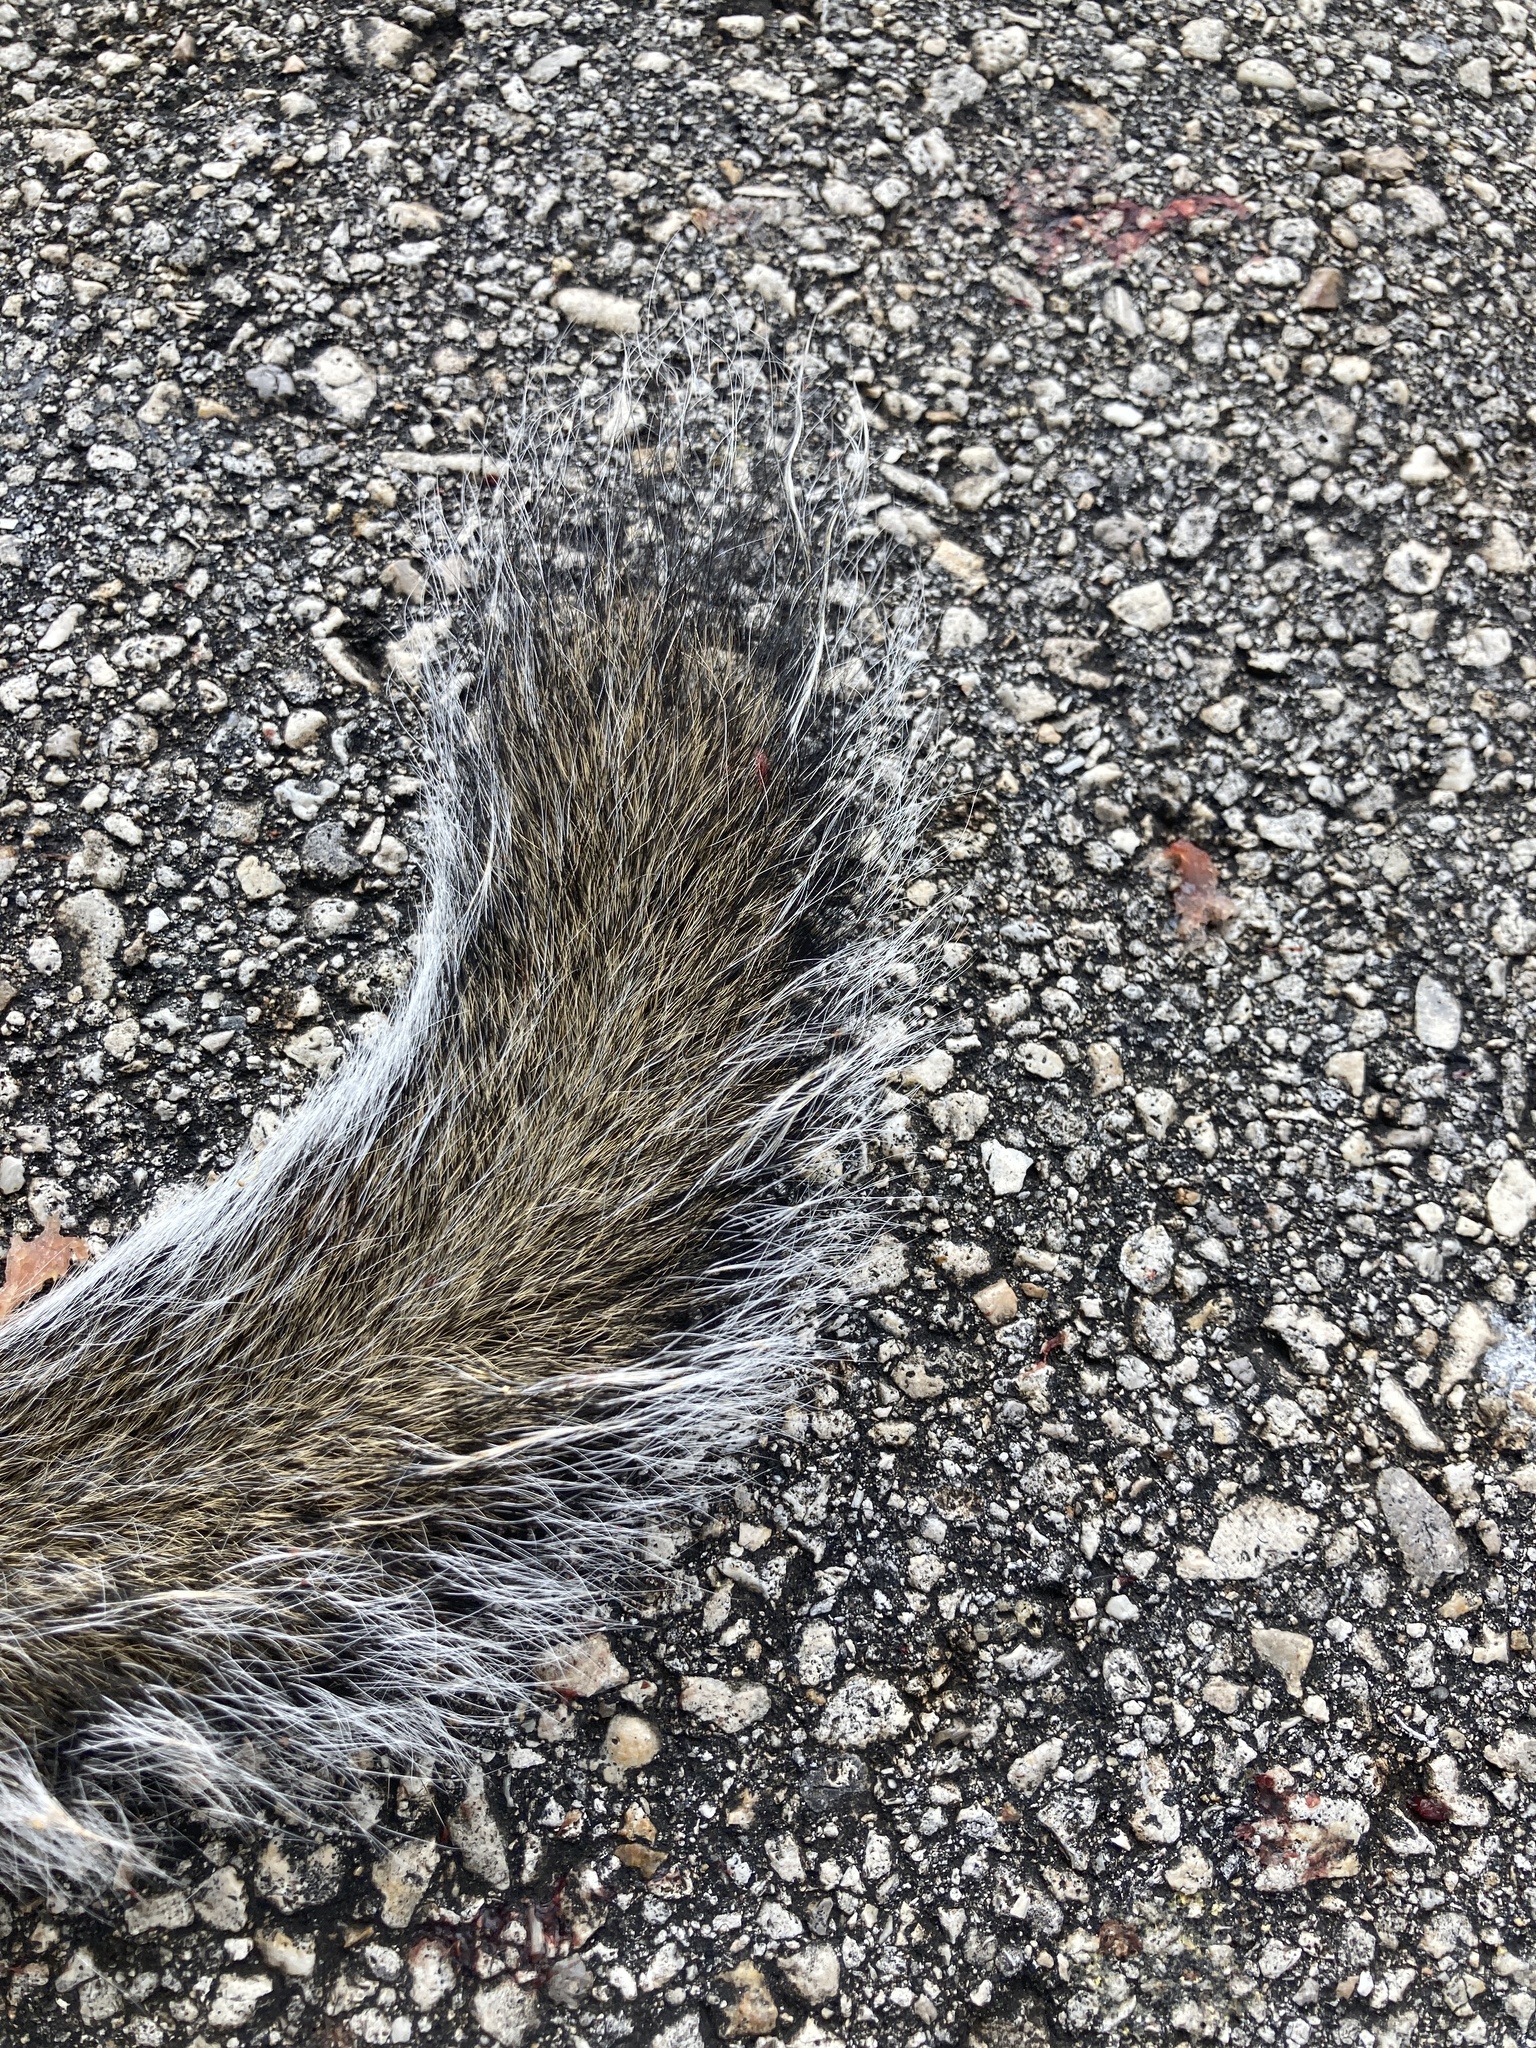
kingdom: Animalia
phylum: Chordata
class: Mammalia
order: Rodentia
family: Sciuridae
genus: Sciurus
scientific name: Sciurus carolinensis
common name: Eastern gray squirrel
